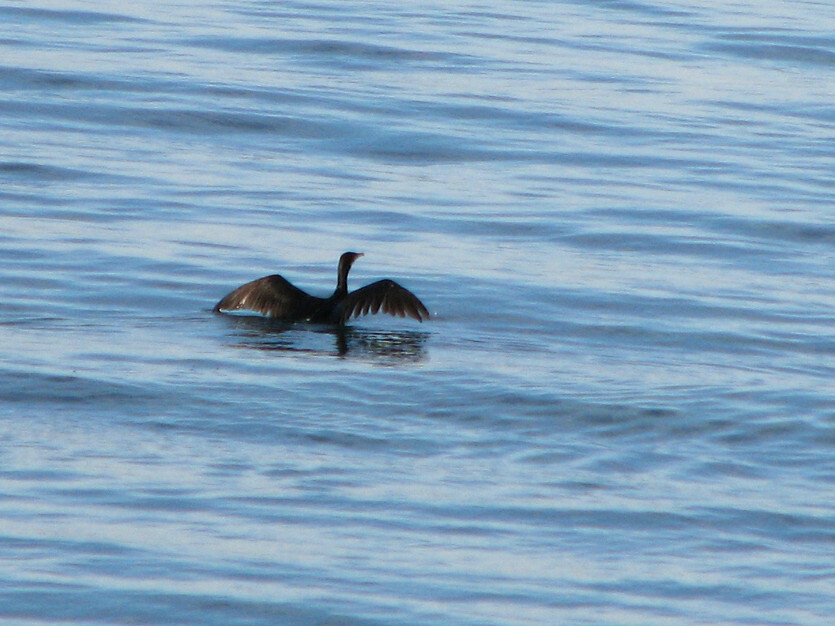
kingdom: Animalia
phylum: Chordata
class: Aves
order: Suliformes
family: Phalacrocoracidae
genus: Phalacrocorax
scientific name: Phalacrocorax carbo
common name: Great cormorant
